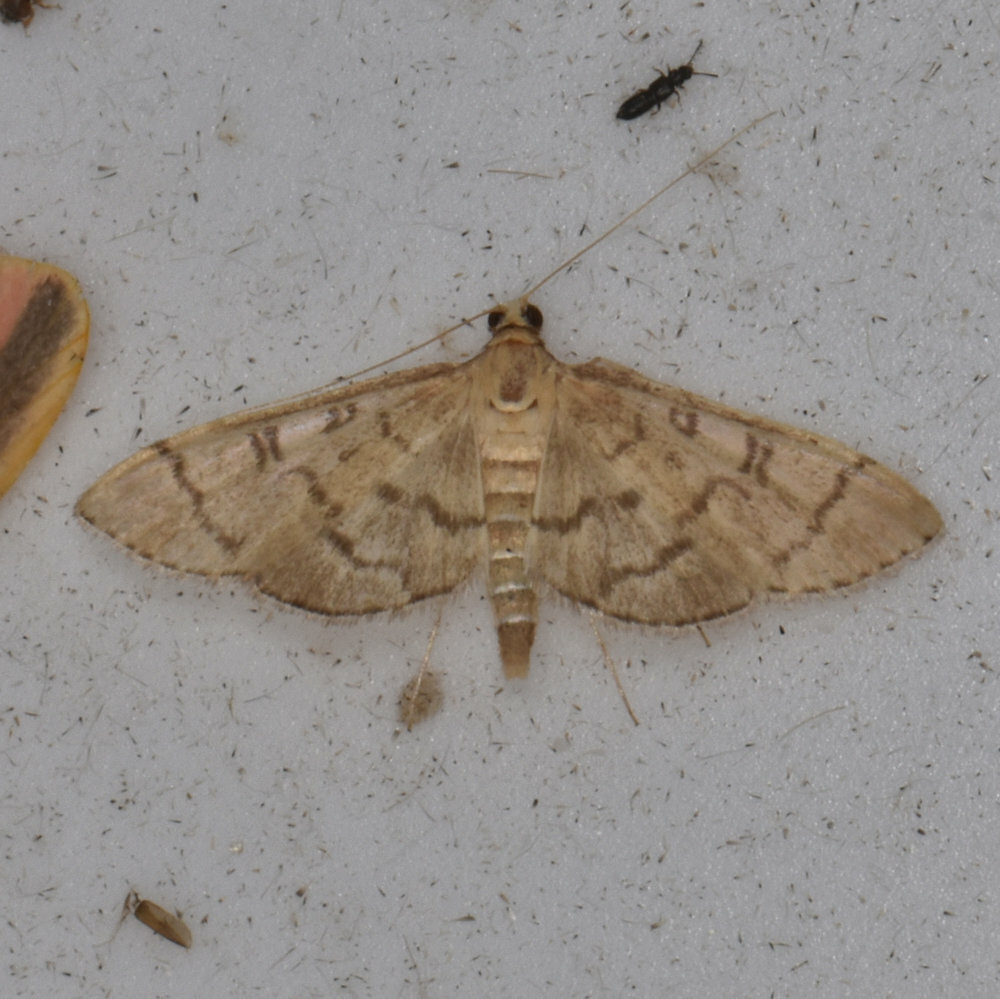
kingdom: Animalia
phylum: Arthropoda
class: Insecta
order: Lepidoptera
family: Crambidae
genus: Lamprosema
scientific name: Lamprosema Blepharomastix ranalis
